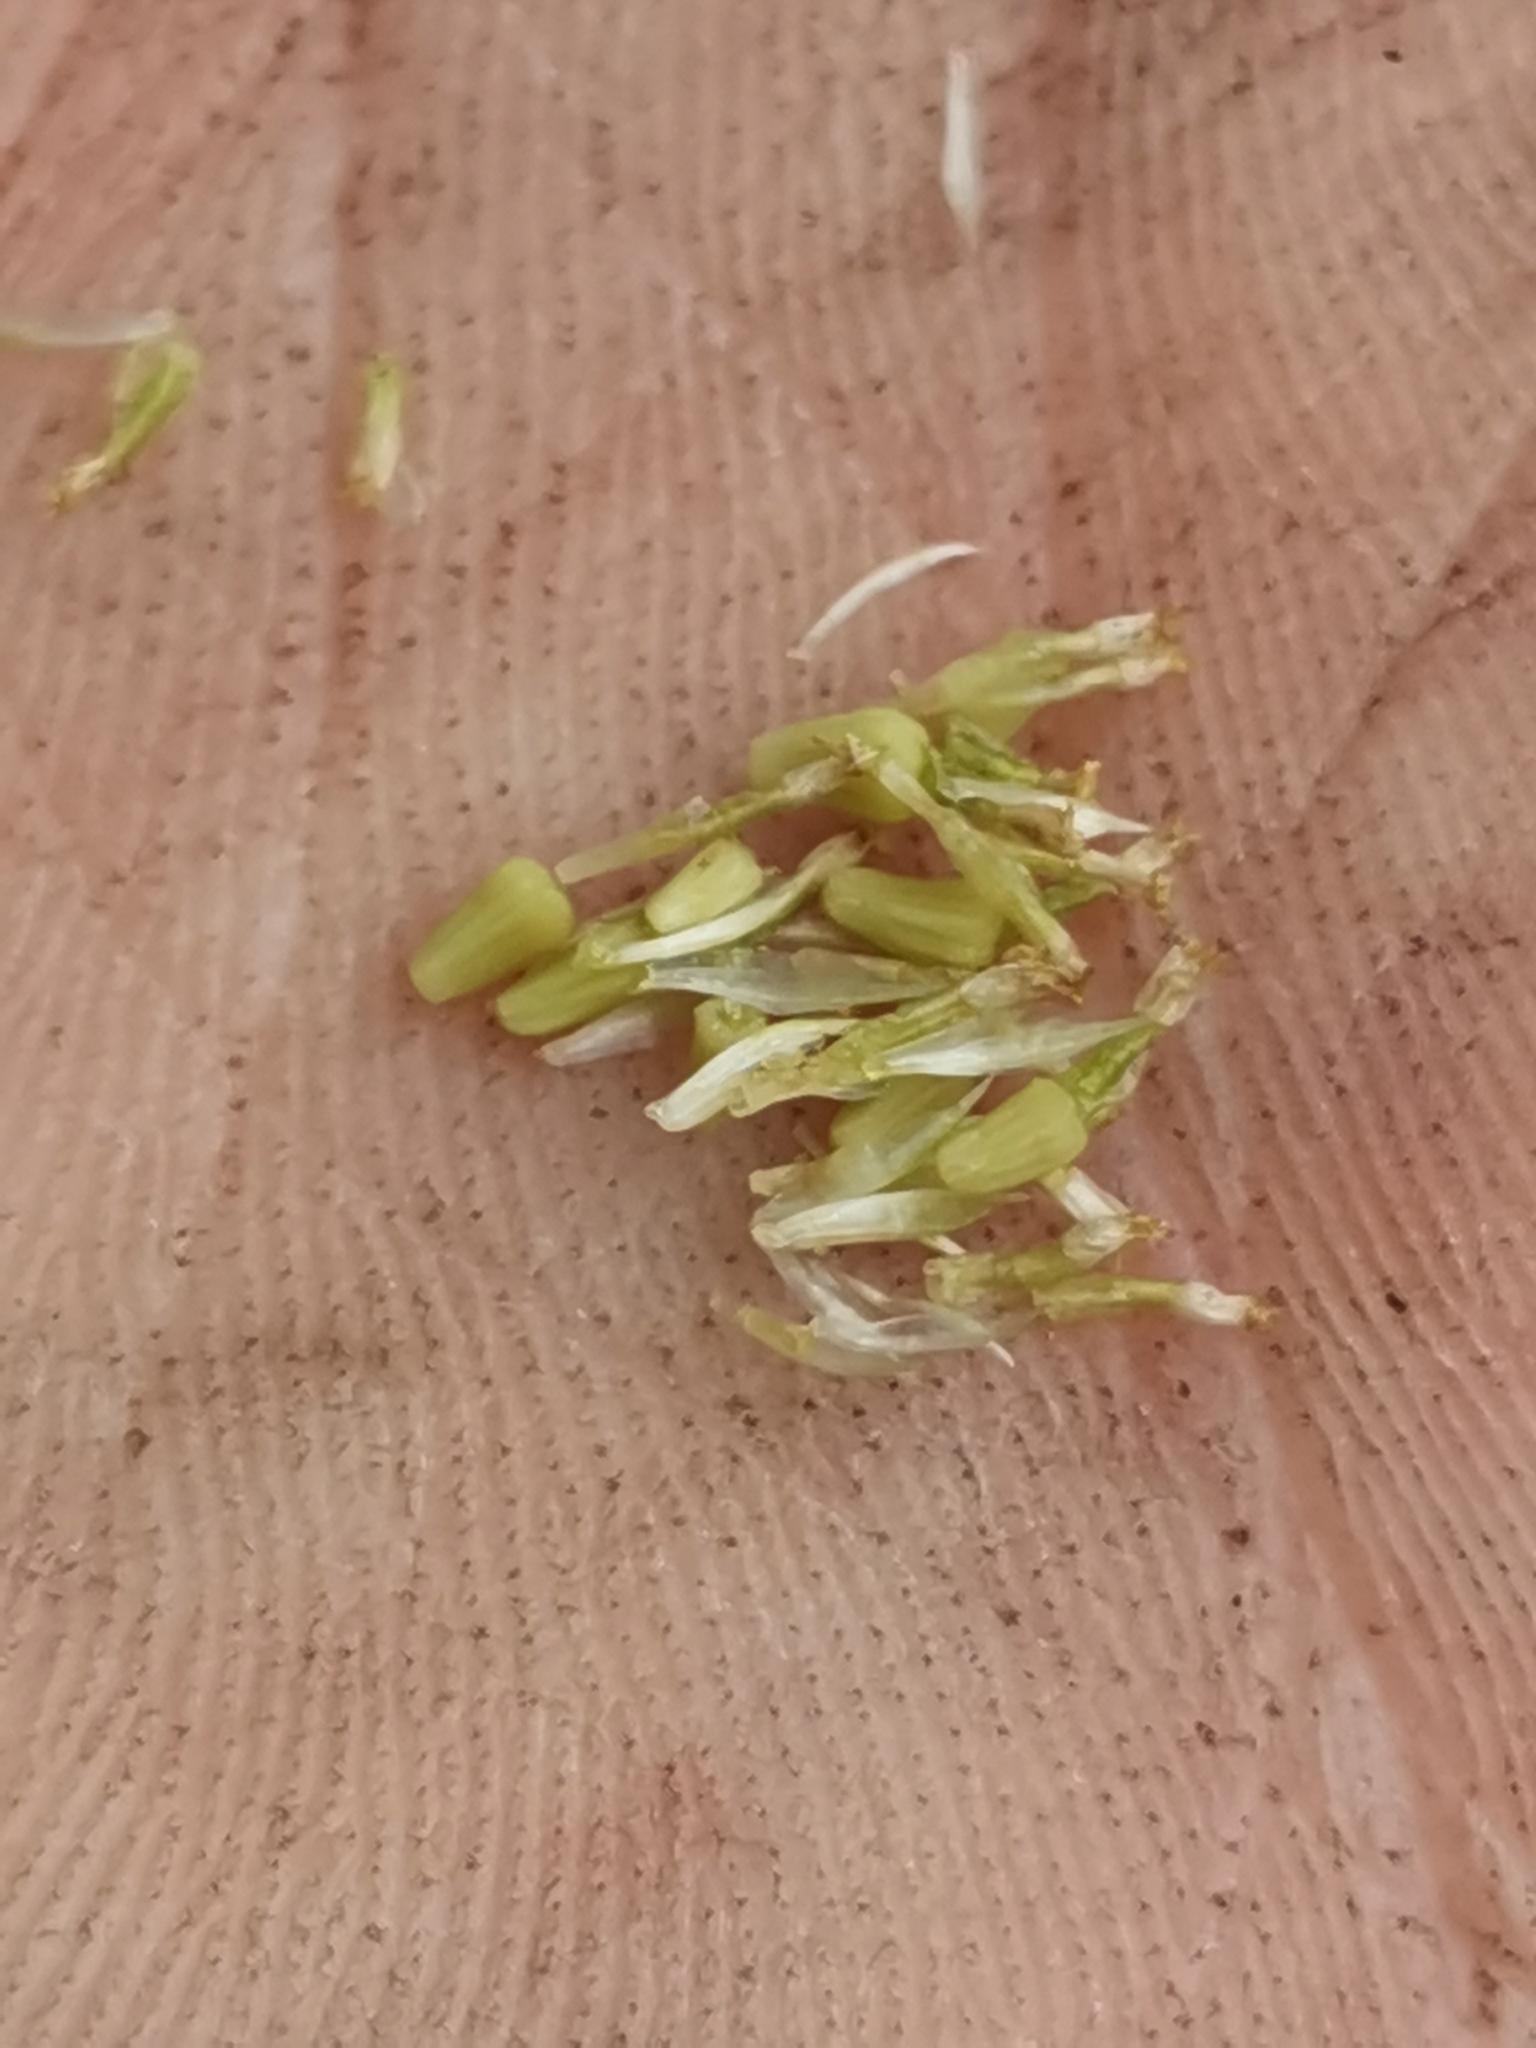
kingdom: Plantae
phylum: Tracheophyta
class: Magnoliopsida
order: Asterales
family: Asteraceae
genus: Anthemis
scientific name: Anthemis arvensis
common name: Corn chamomile
